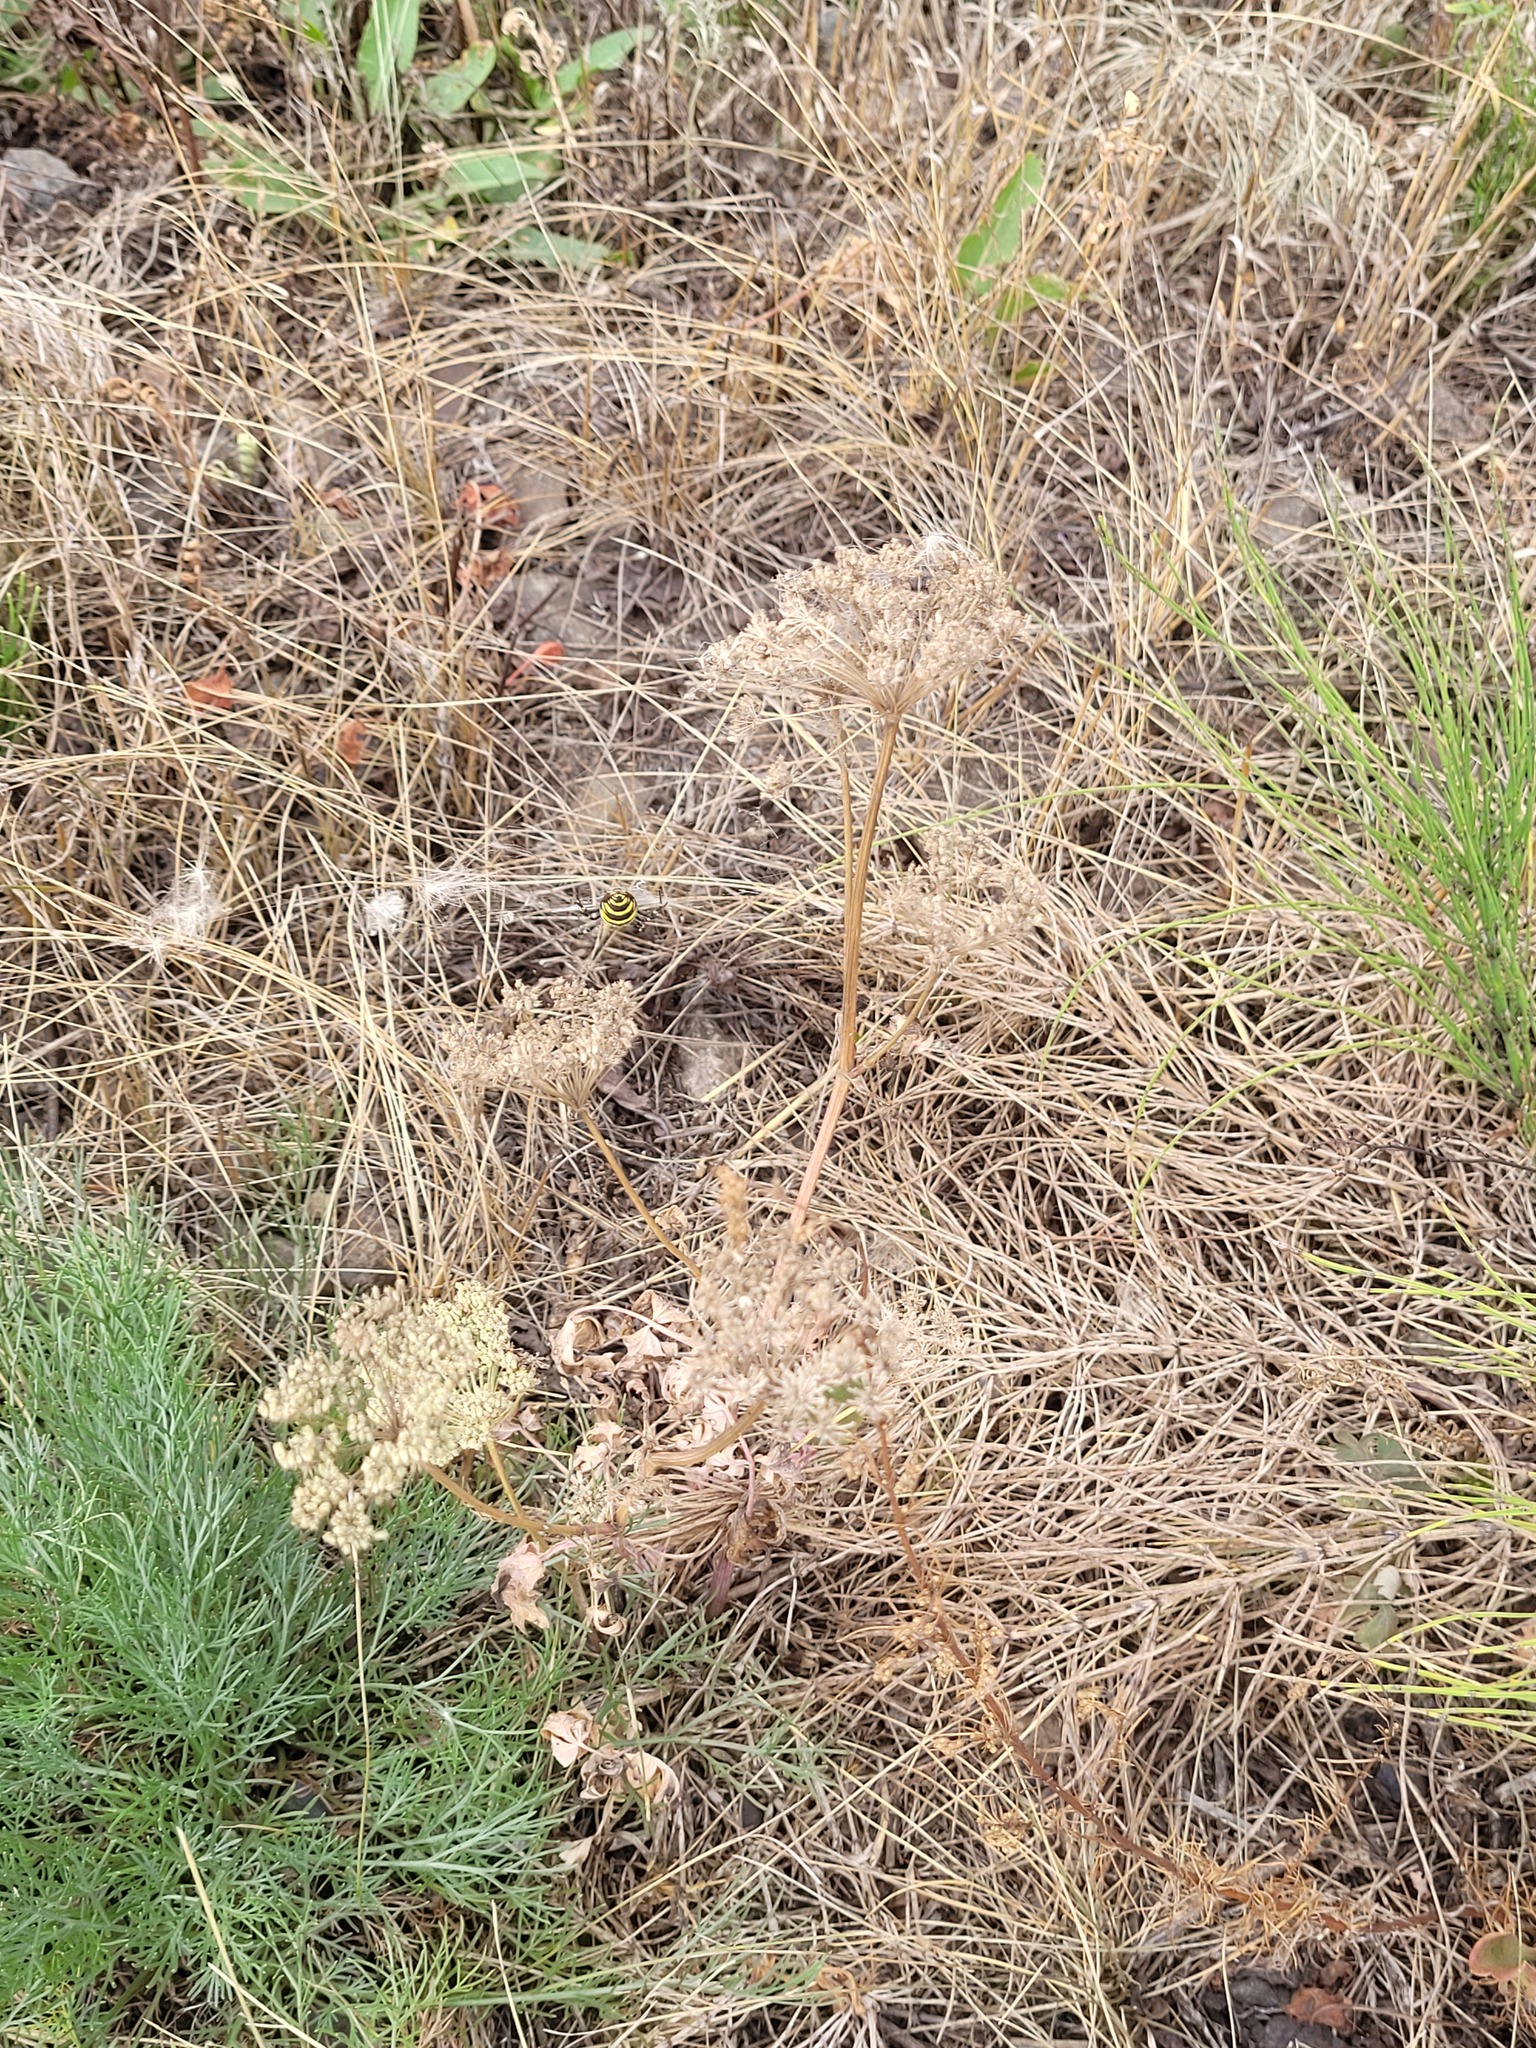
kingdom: Plantae
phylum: Tracheophyta
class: Magnoliopsida
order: Apiales
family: Apiaceae
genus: Seseli
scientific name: Seseli libanotis
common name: Mooncarrot
